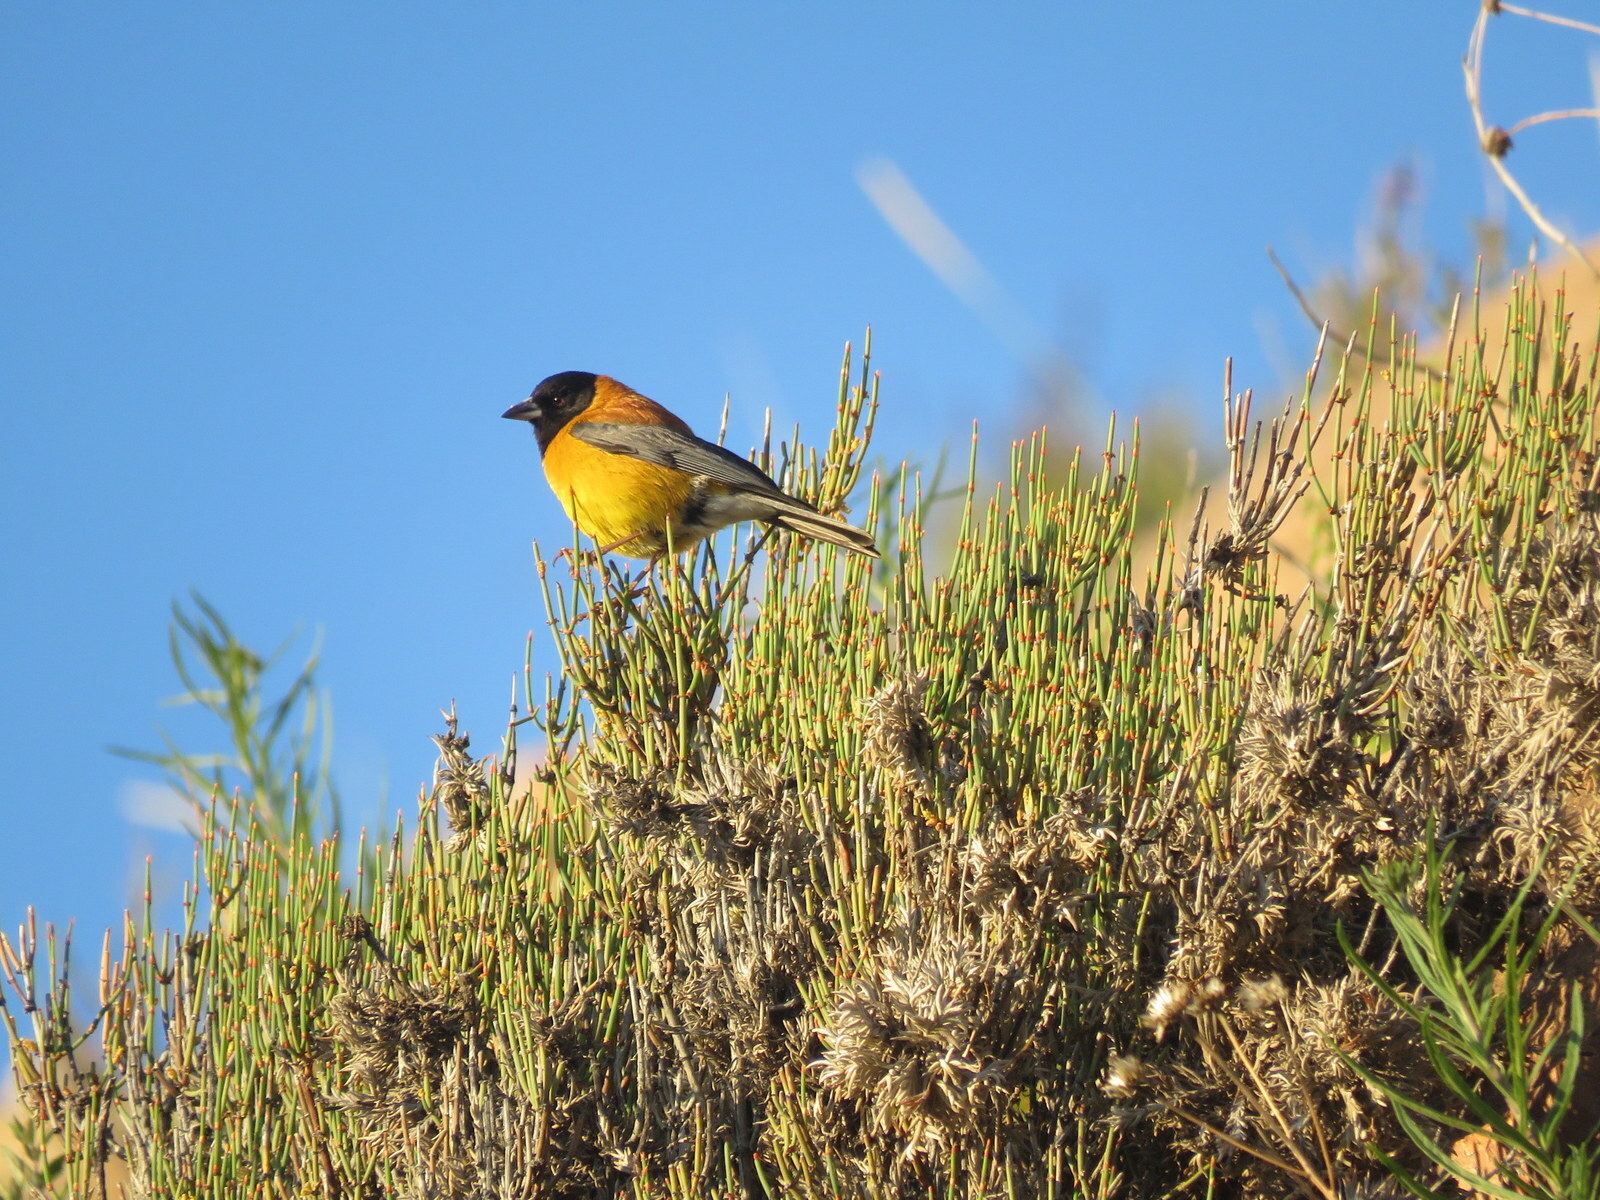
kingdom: Animalia
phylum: Chordata
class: Aves
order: Passeriformes
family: Thraupidae
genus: Phrygilus
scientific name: Phrygilus atriceps
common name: Black-hooded sierra finch
